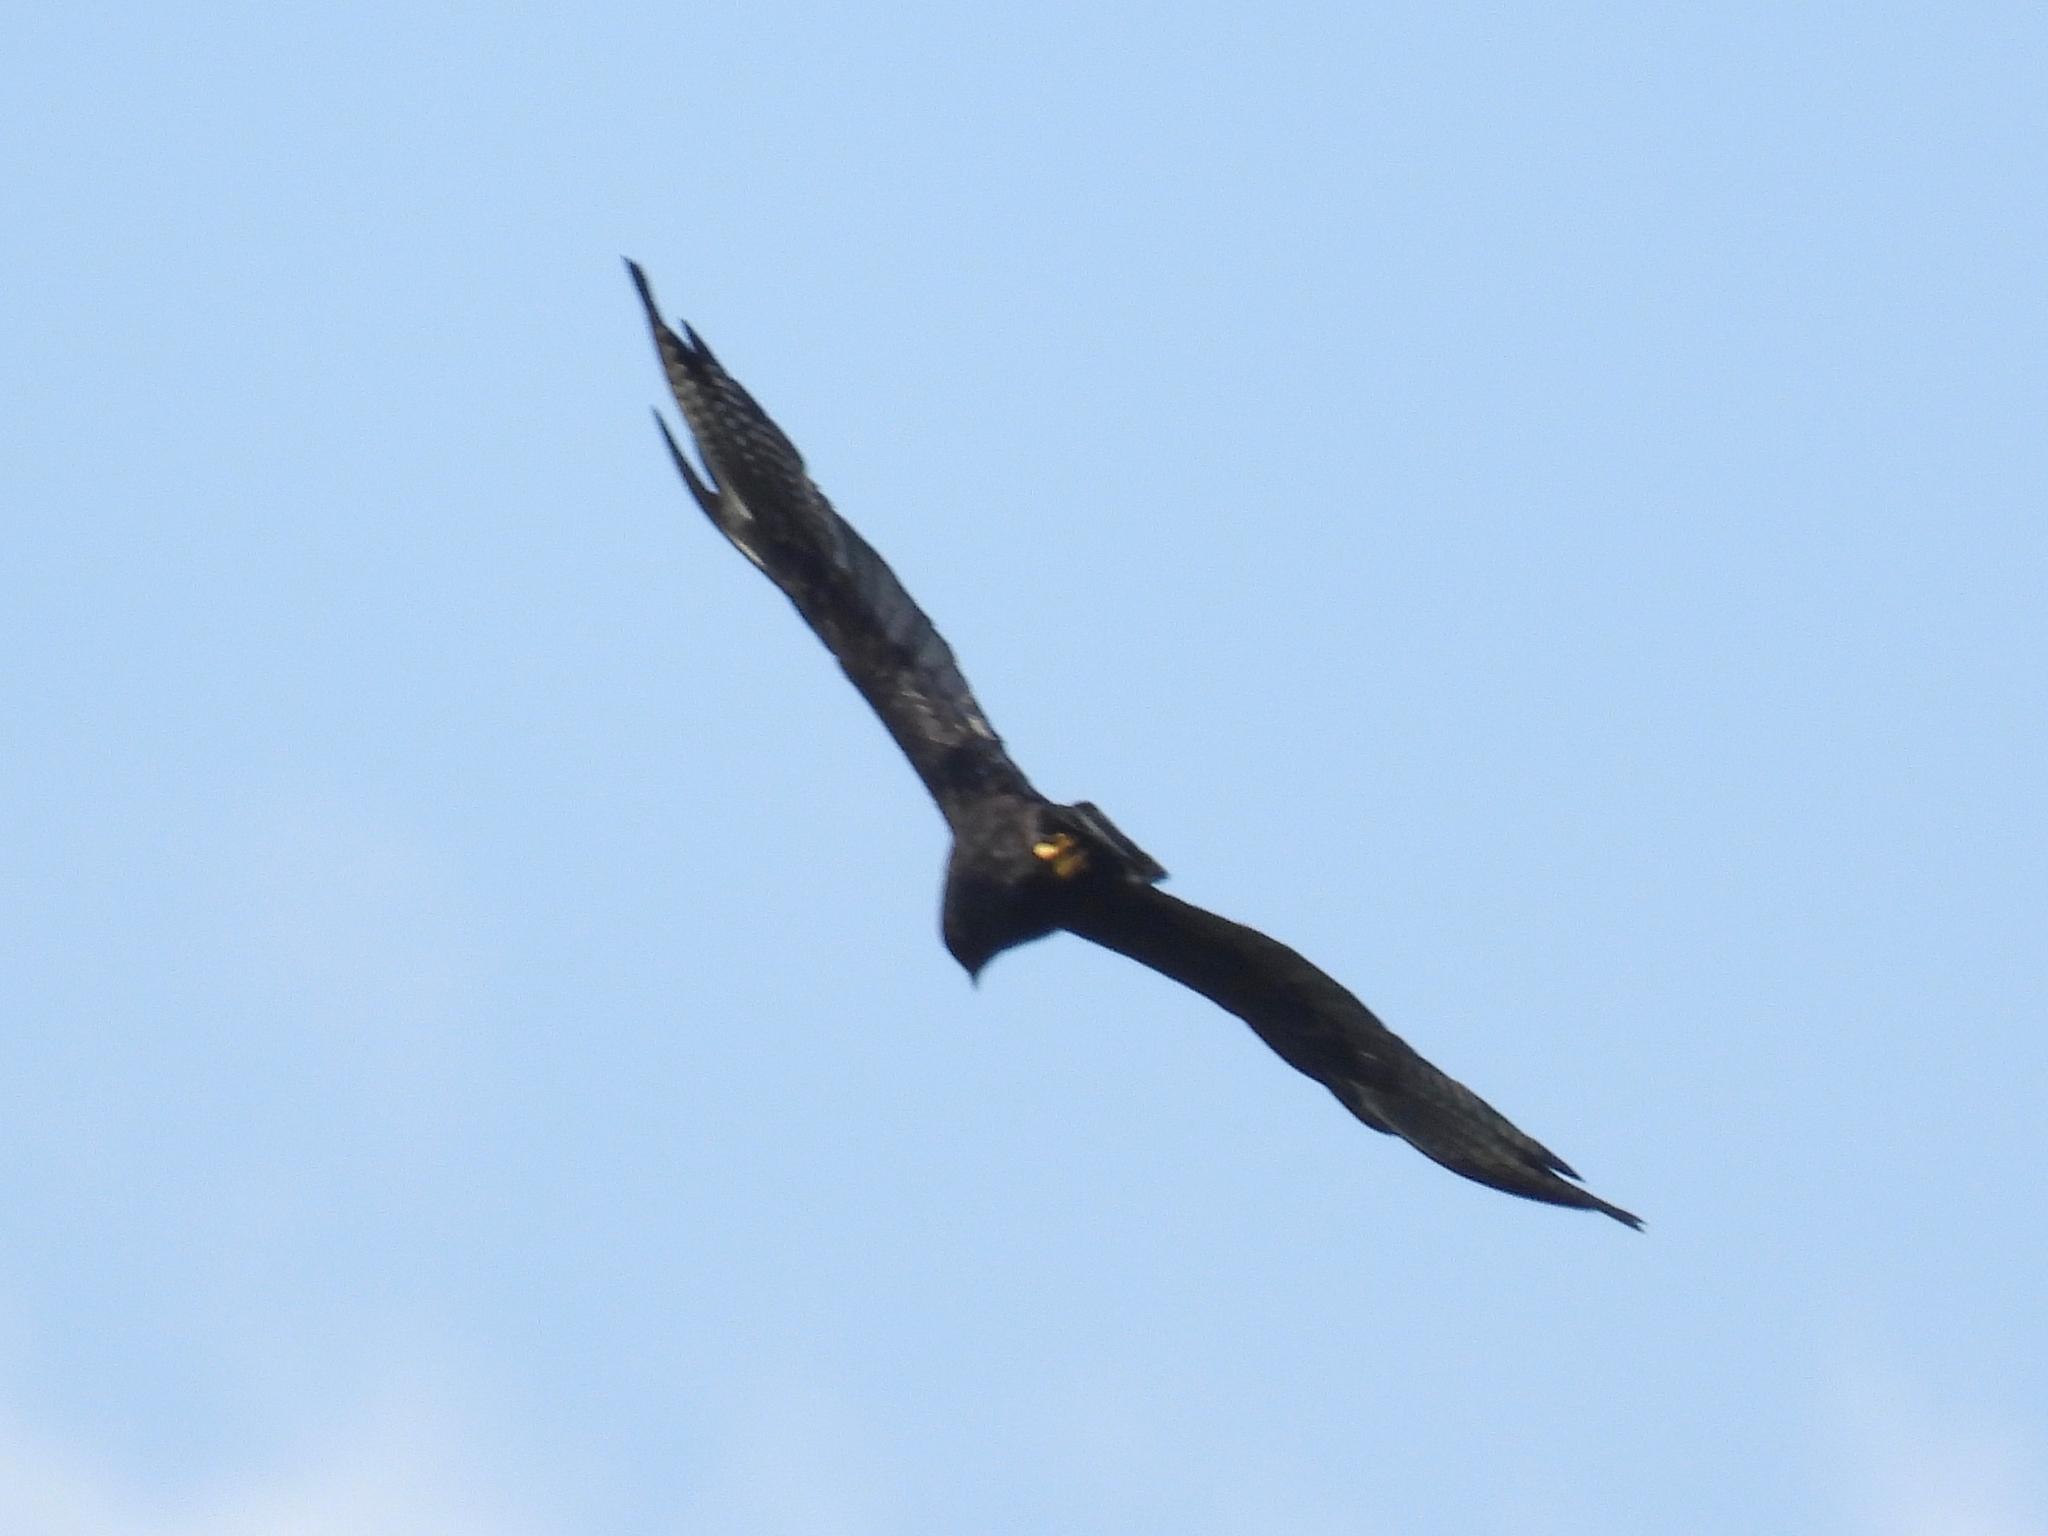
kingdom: Animalia
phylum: Chordata
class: Aves
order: Accipitriformes
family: Accipitridae
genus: Buteo
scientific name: Buteo brachyurus
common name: Short-tailed hawk
